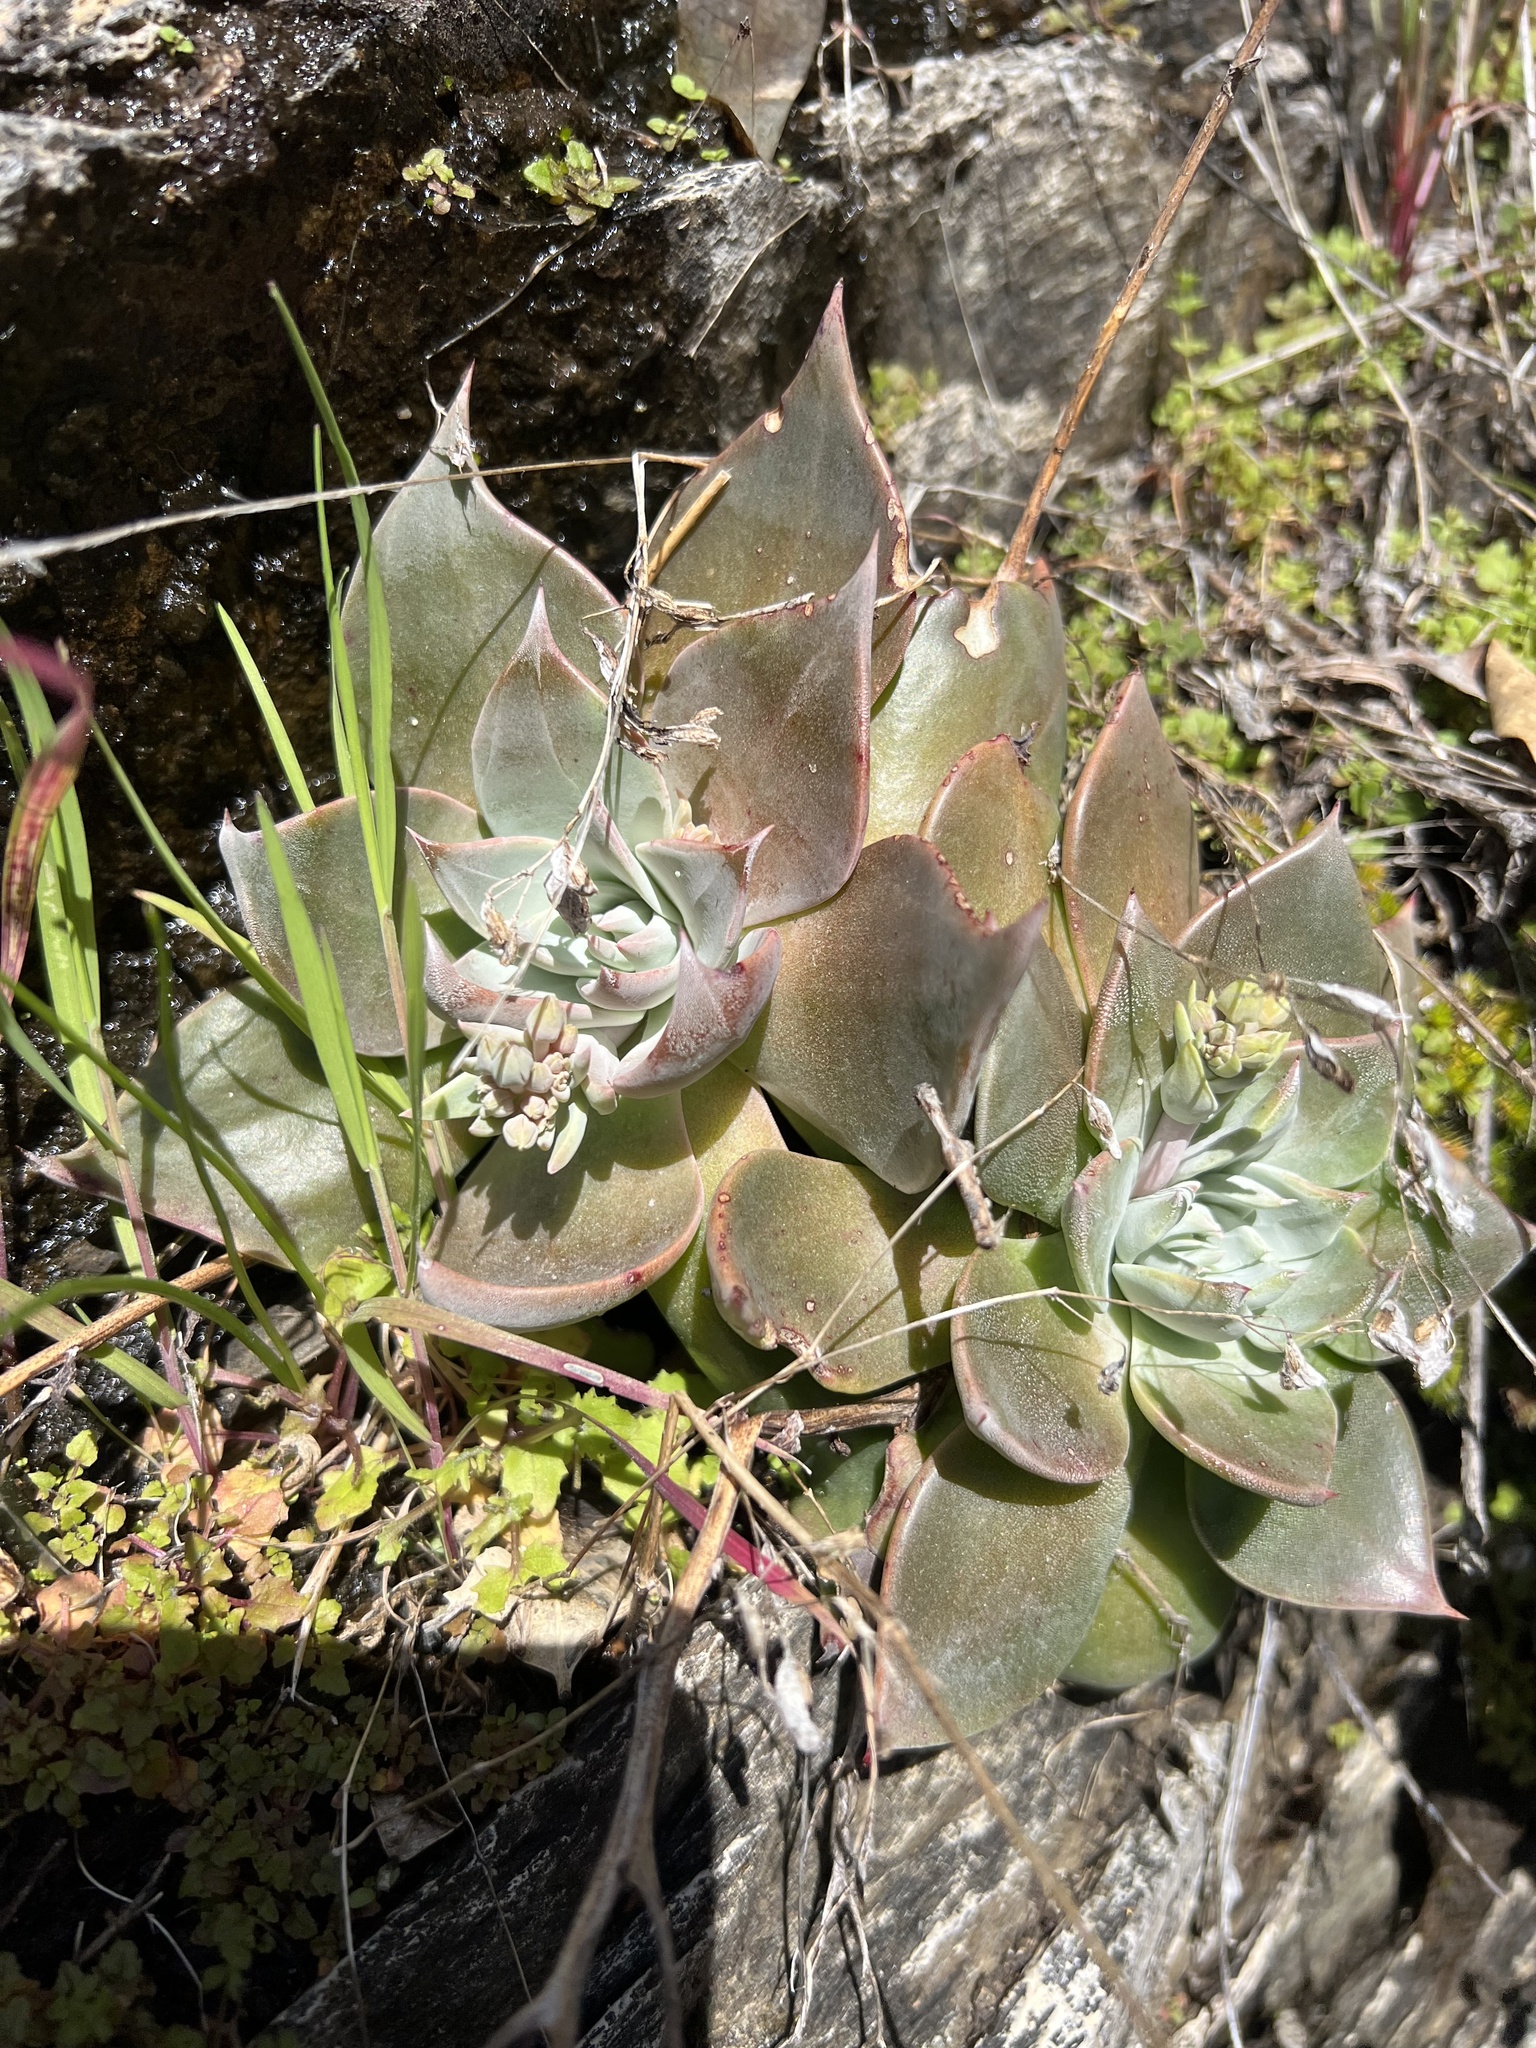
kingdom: Plantae
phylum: Tracheophyta
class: Magnoliopsida
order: Saxifragales
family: Crassulaceae
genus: Dudleya
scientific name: Dudleya cymosa
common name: Canyon dudleya
